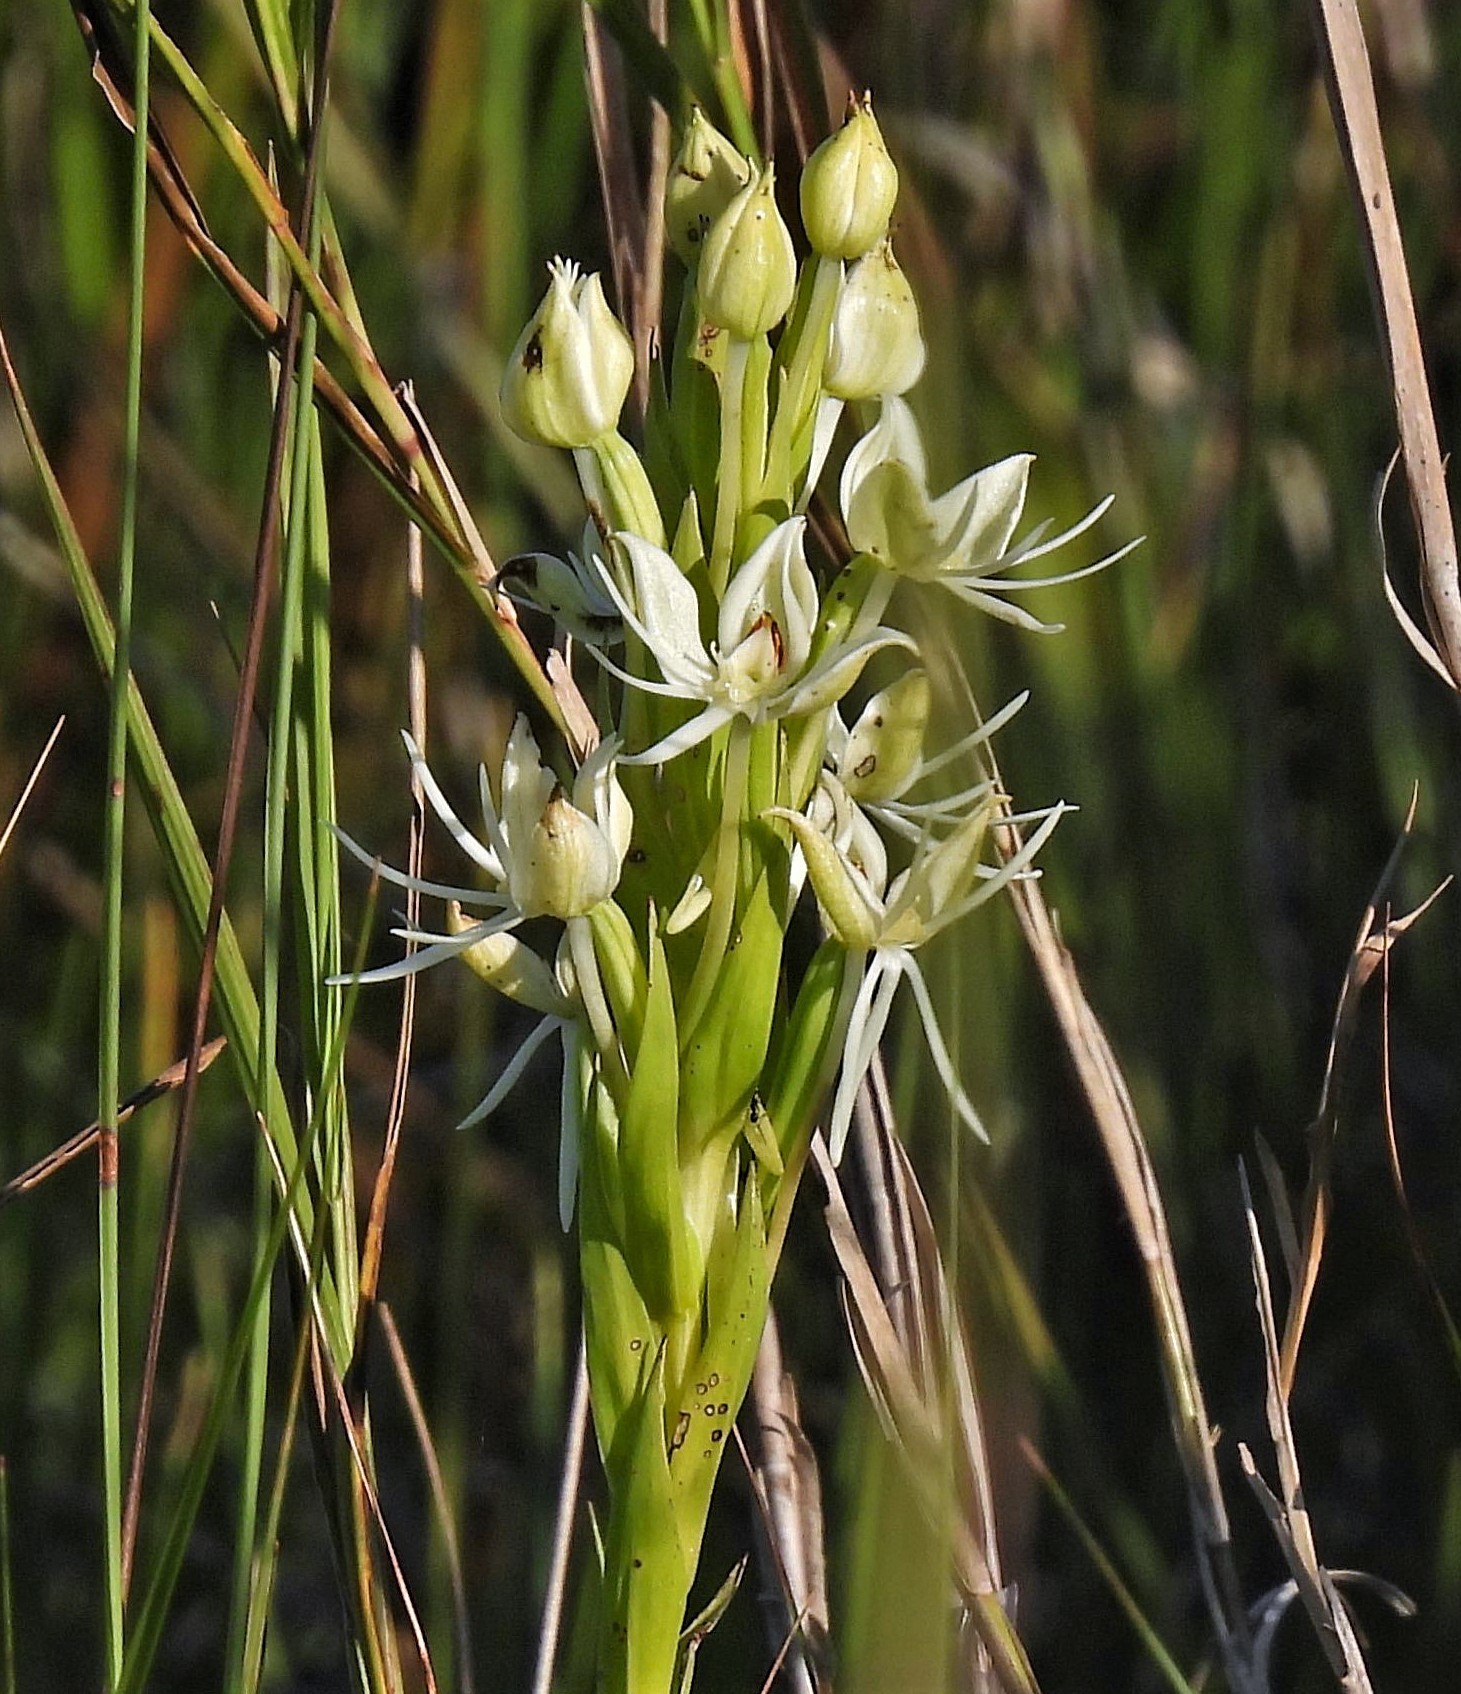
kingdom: Plantae
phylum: Tracheophyta
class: Liliopsida
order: Asparagales
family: Orchidaceae
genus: Habenaria
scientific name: Habenaria bractescens
